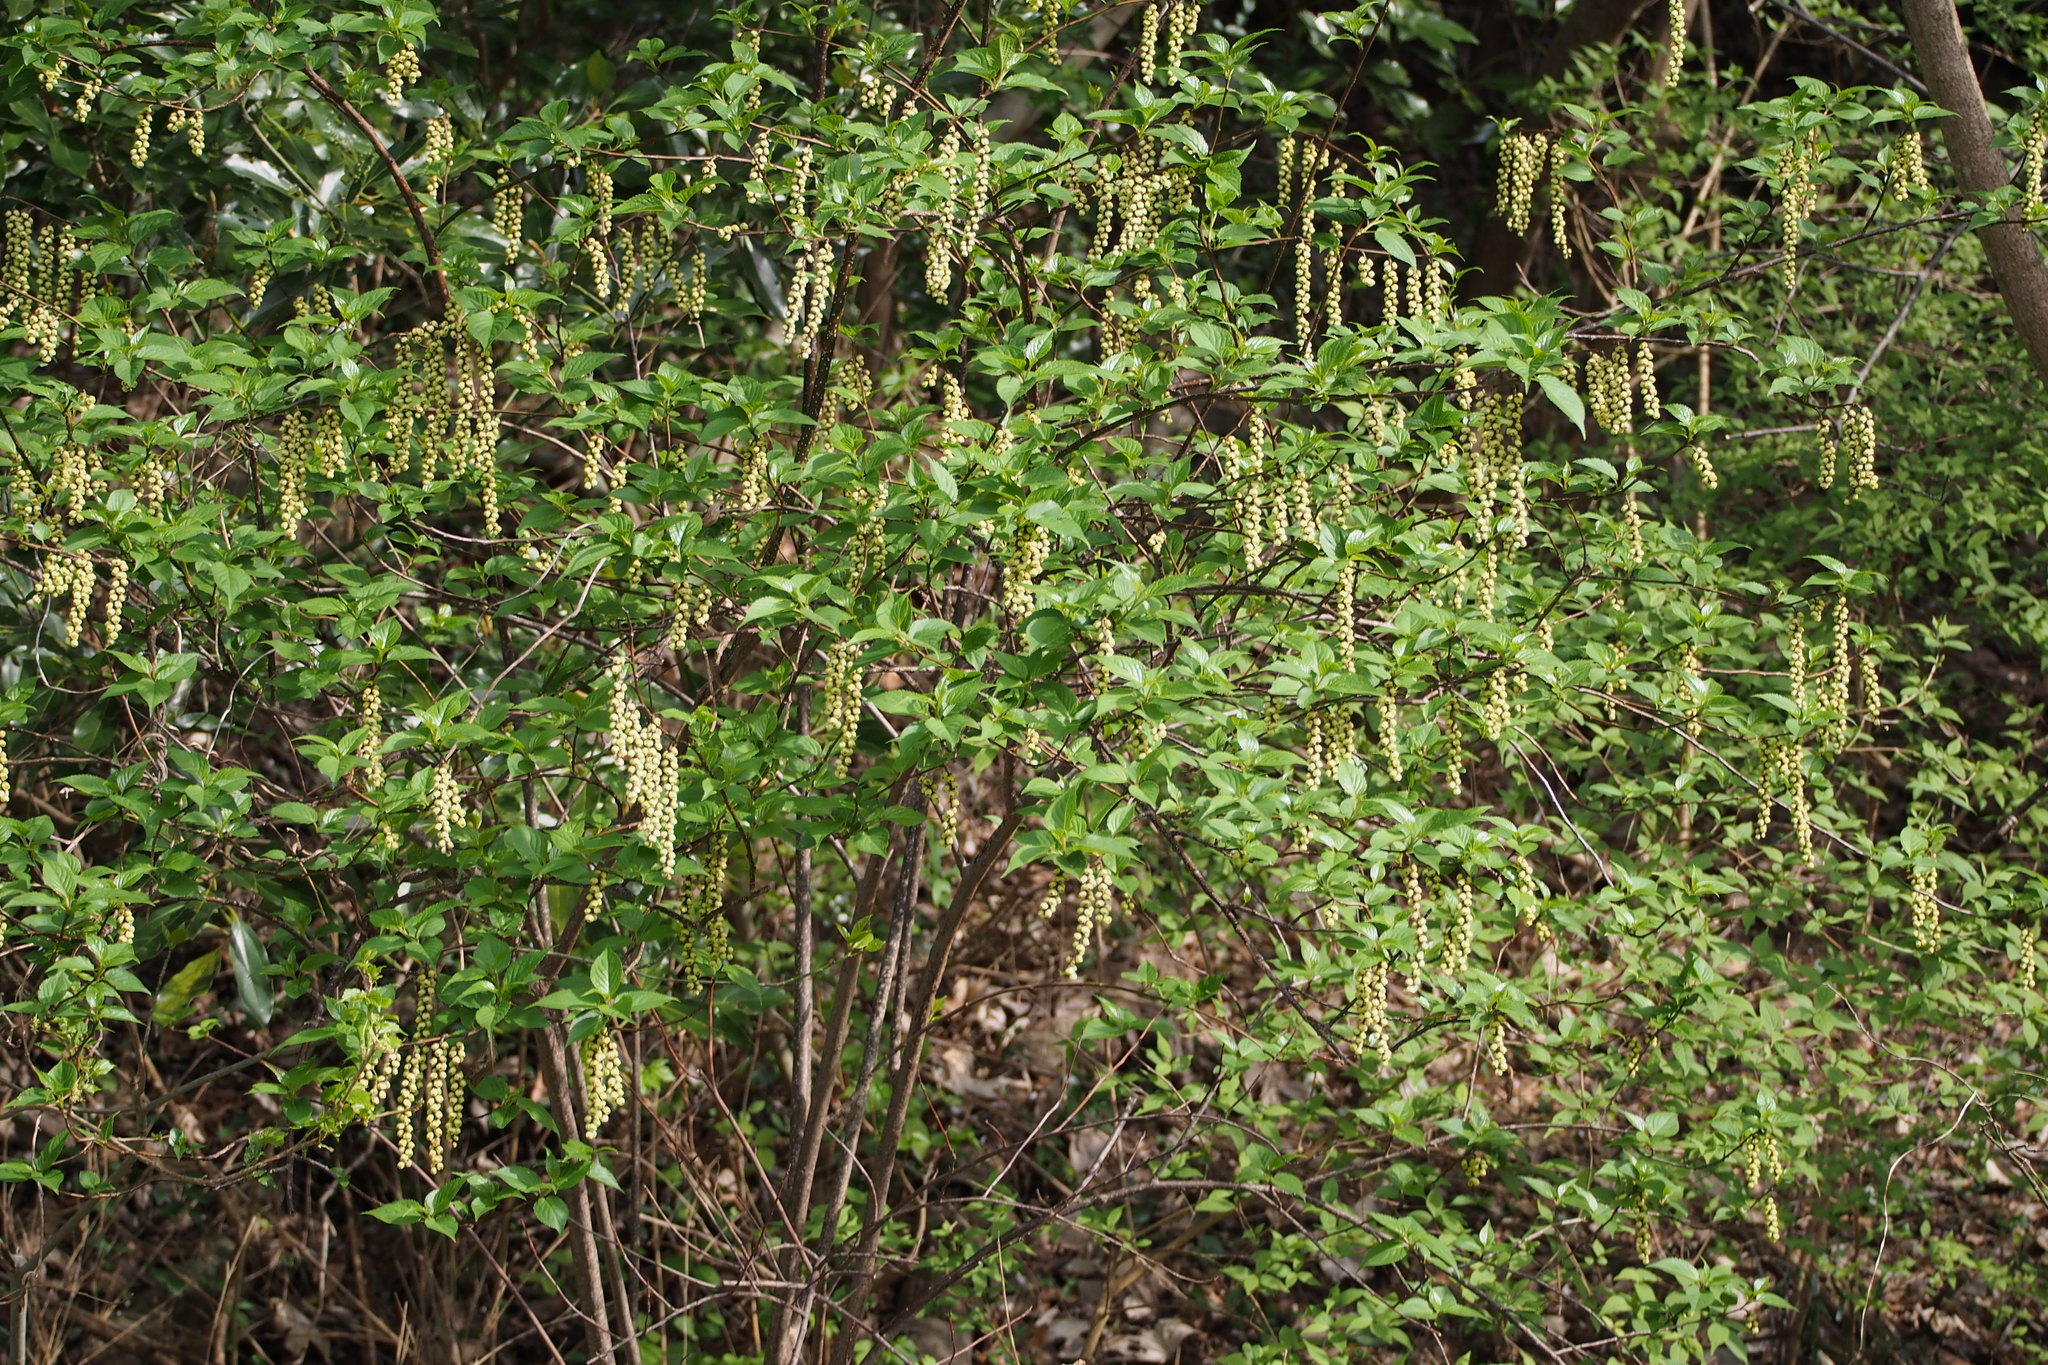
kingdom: Plantae
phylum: Tracheophyta
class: Magnoliopsida
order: Crossosomatales
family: Stachyuraceae
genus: Stachyurus
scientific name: Stachyurus praecox
